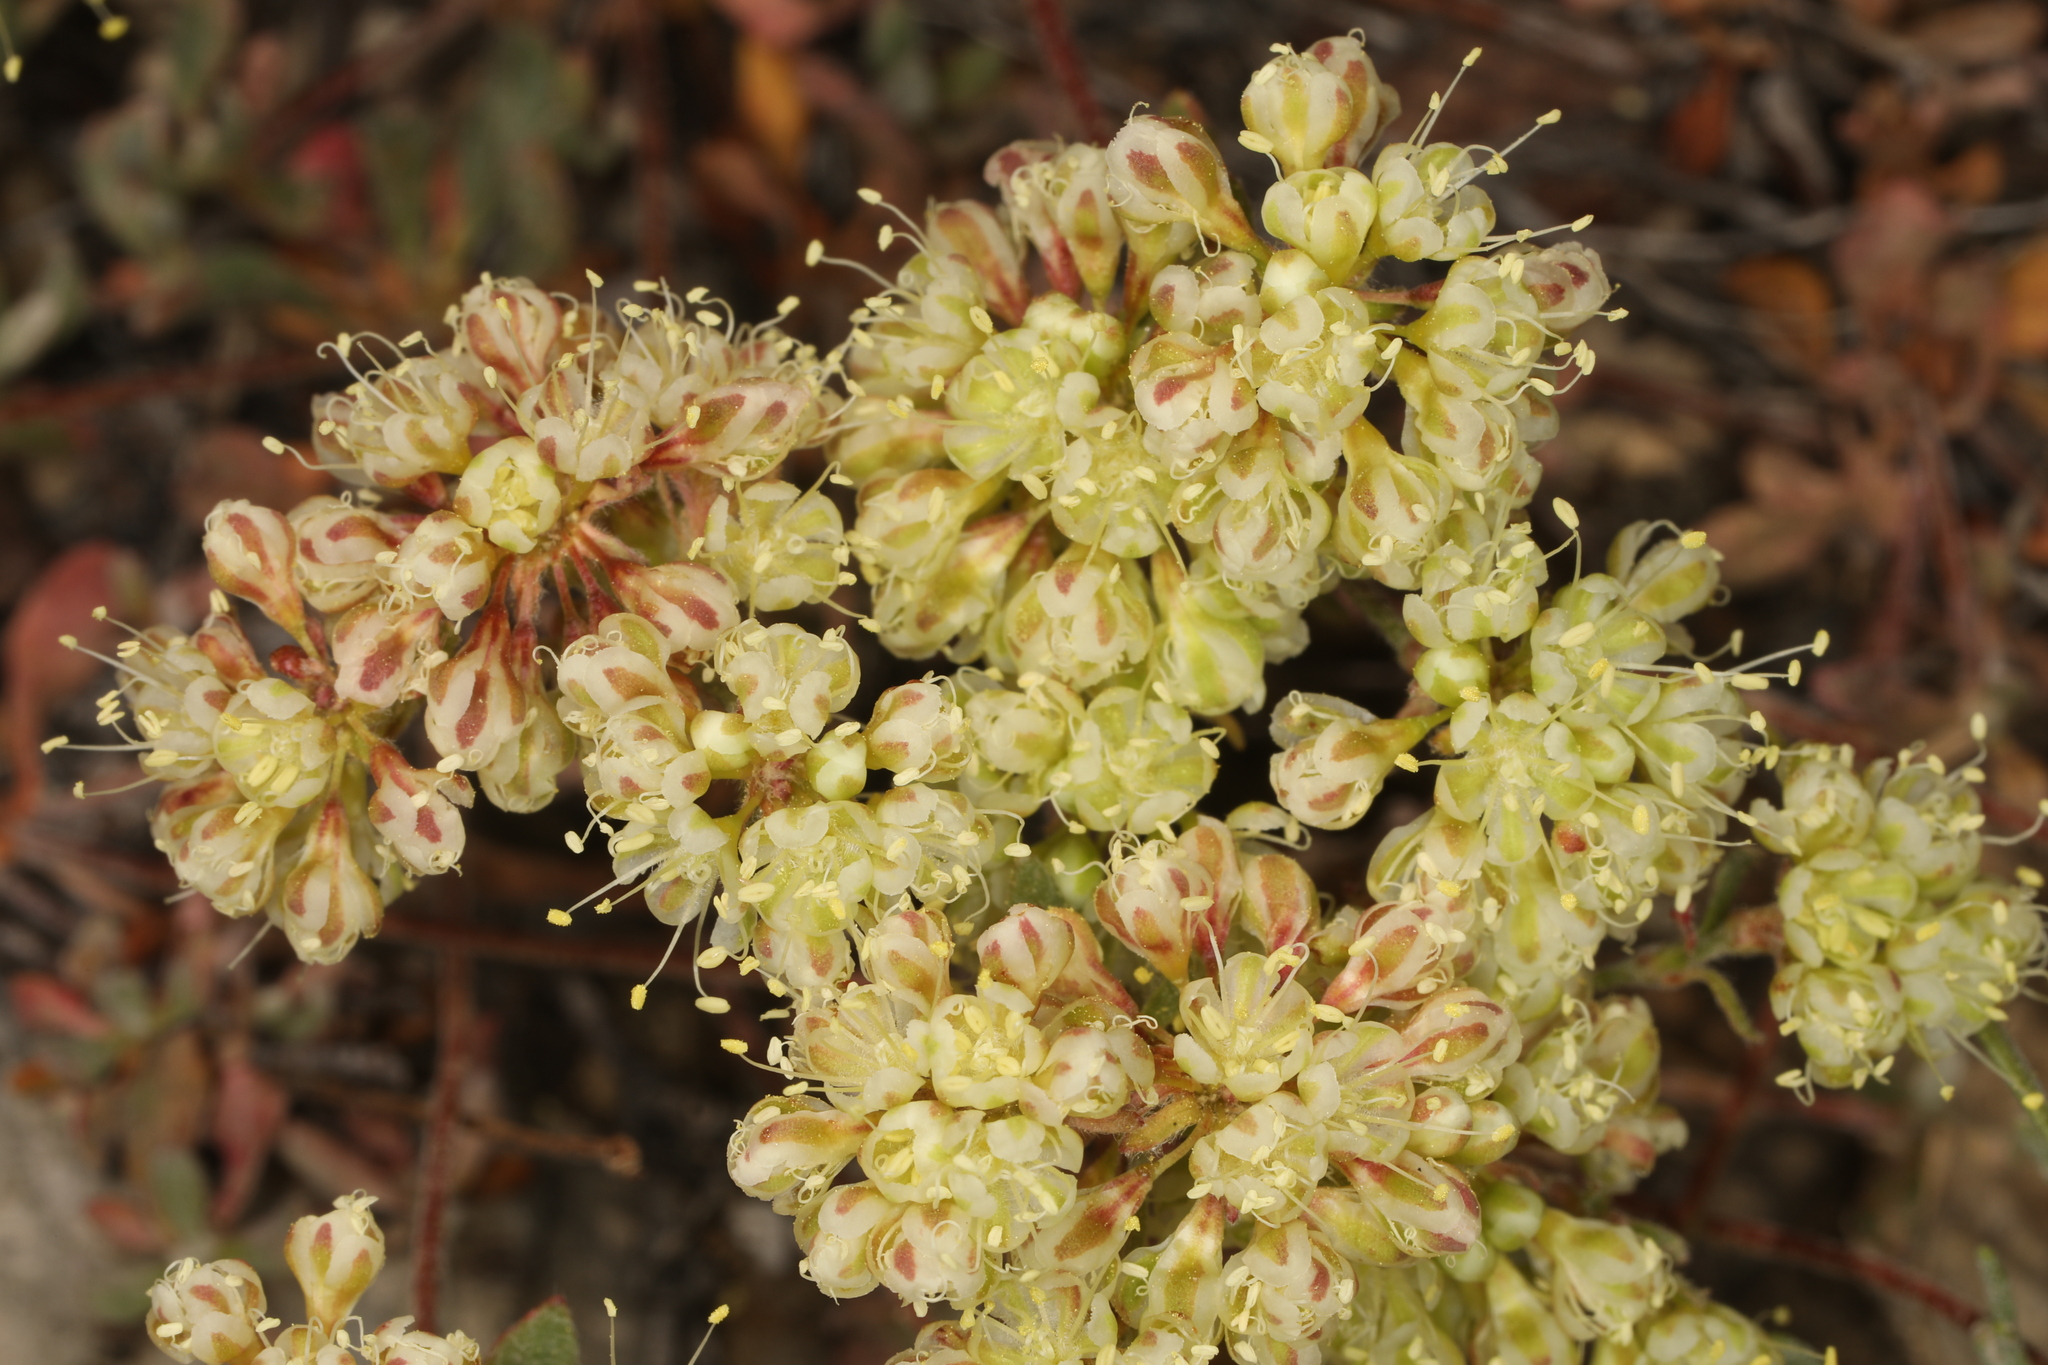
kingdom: Plantae
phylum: Tracheophyta
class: Magnoliopsida
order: Caryophyllales
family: Polygonaceae
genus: Eriogonum
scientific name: Eriogonum umbellatum
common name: Sulfur-buckwheat
